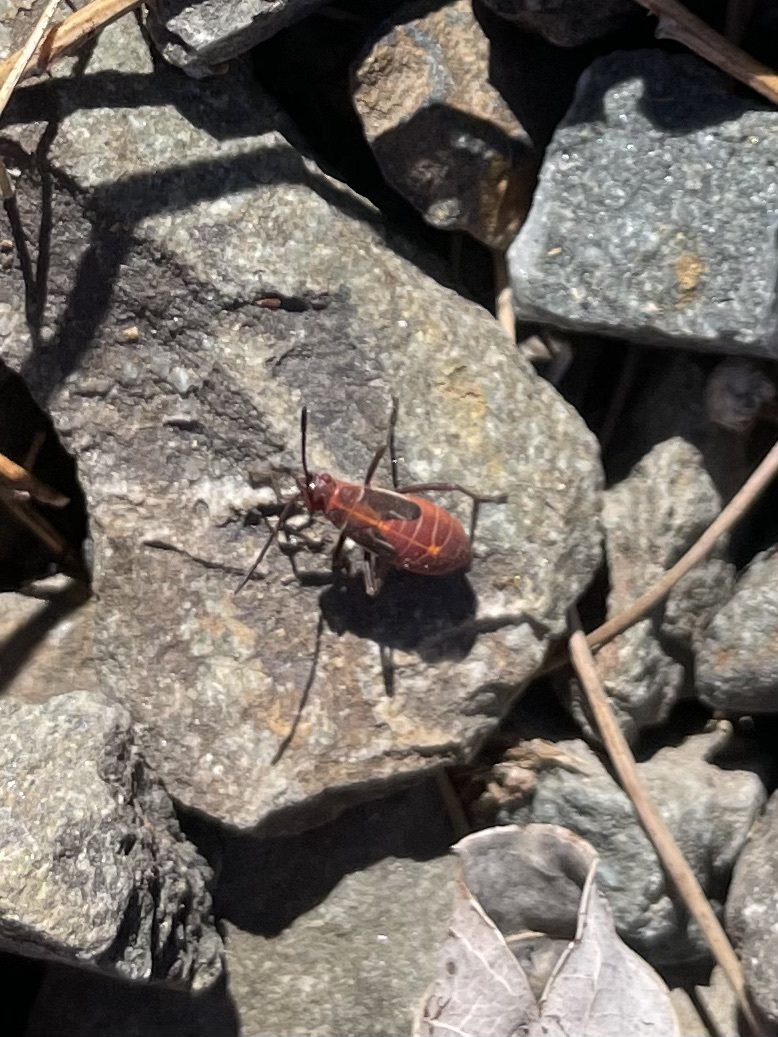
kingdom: Animalia
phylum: Arthropoda
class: Insecta
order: Hemiptera
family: Rhopalidae
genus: Boisea
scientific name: Boisea rubrolineata
